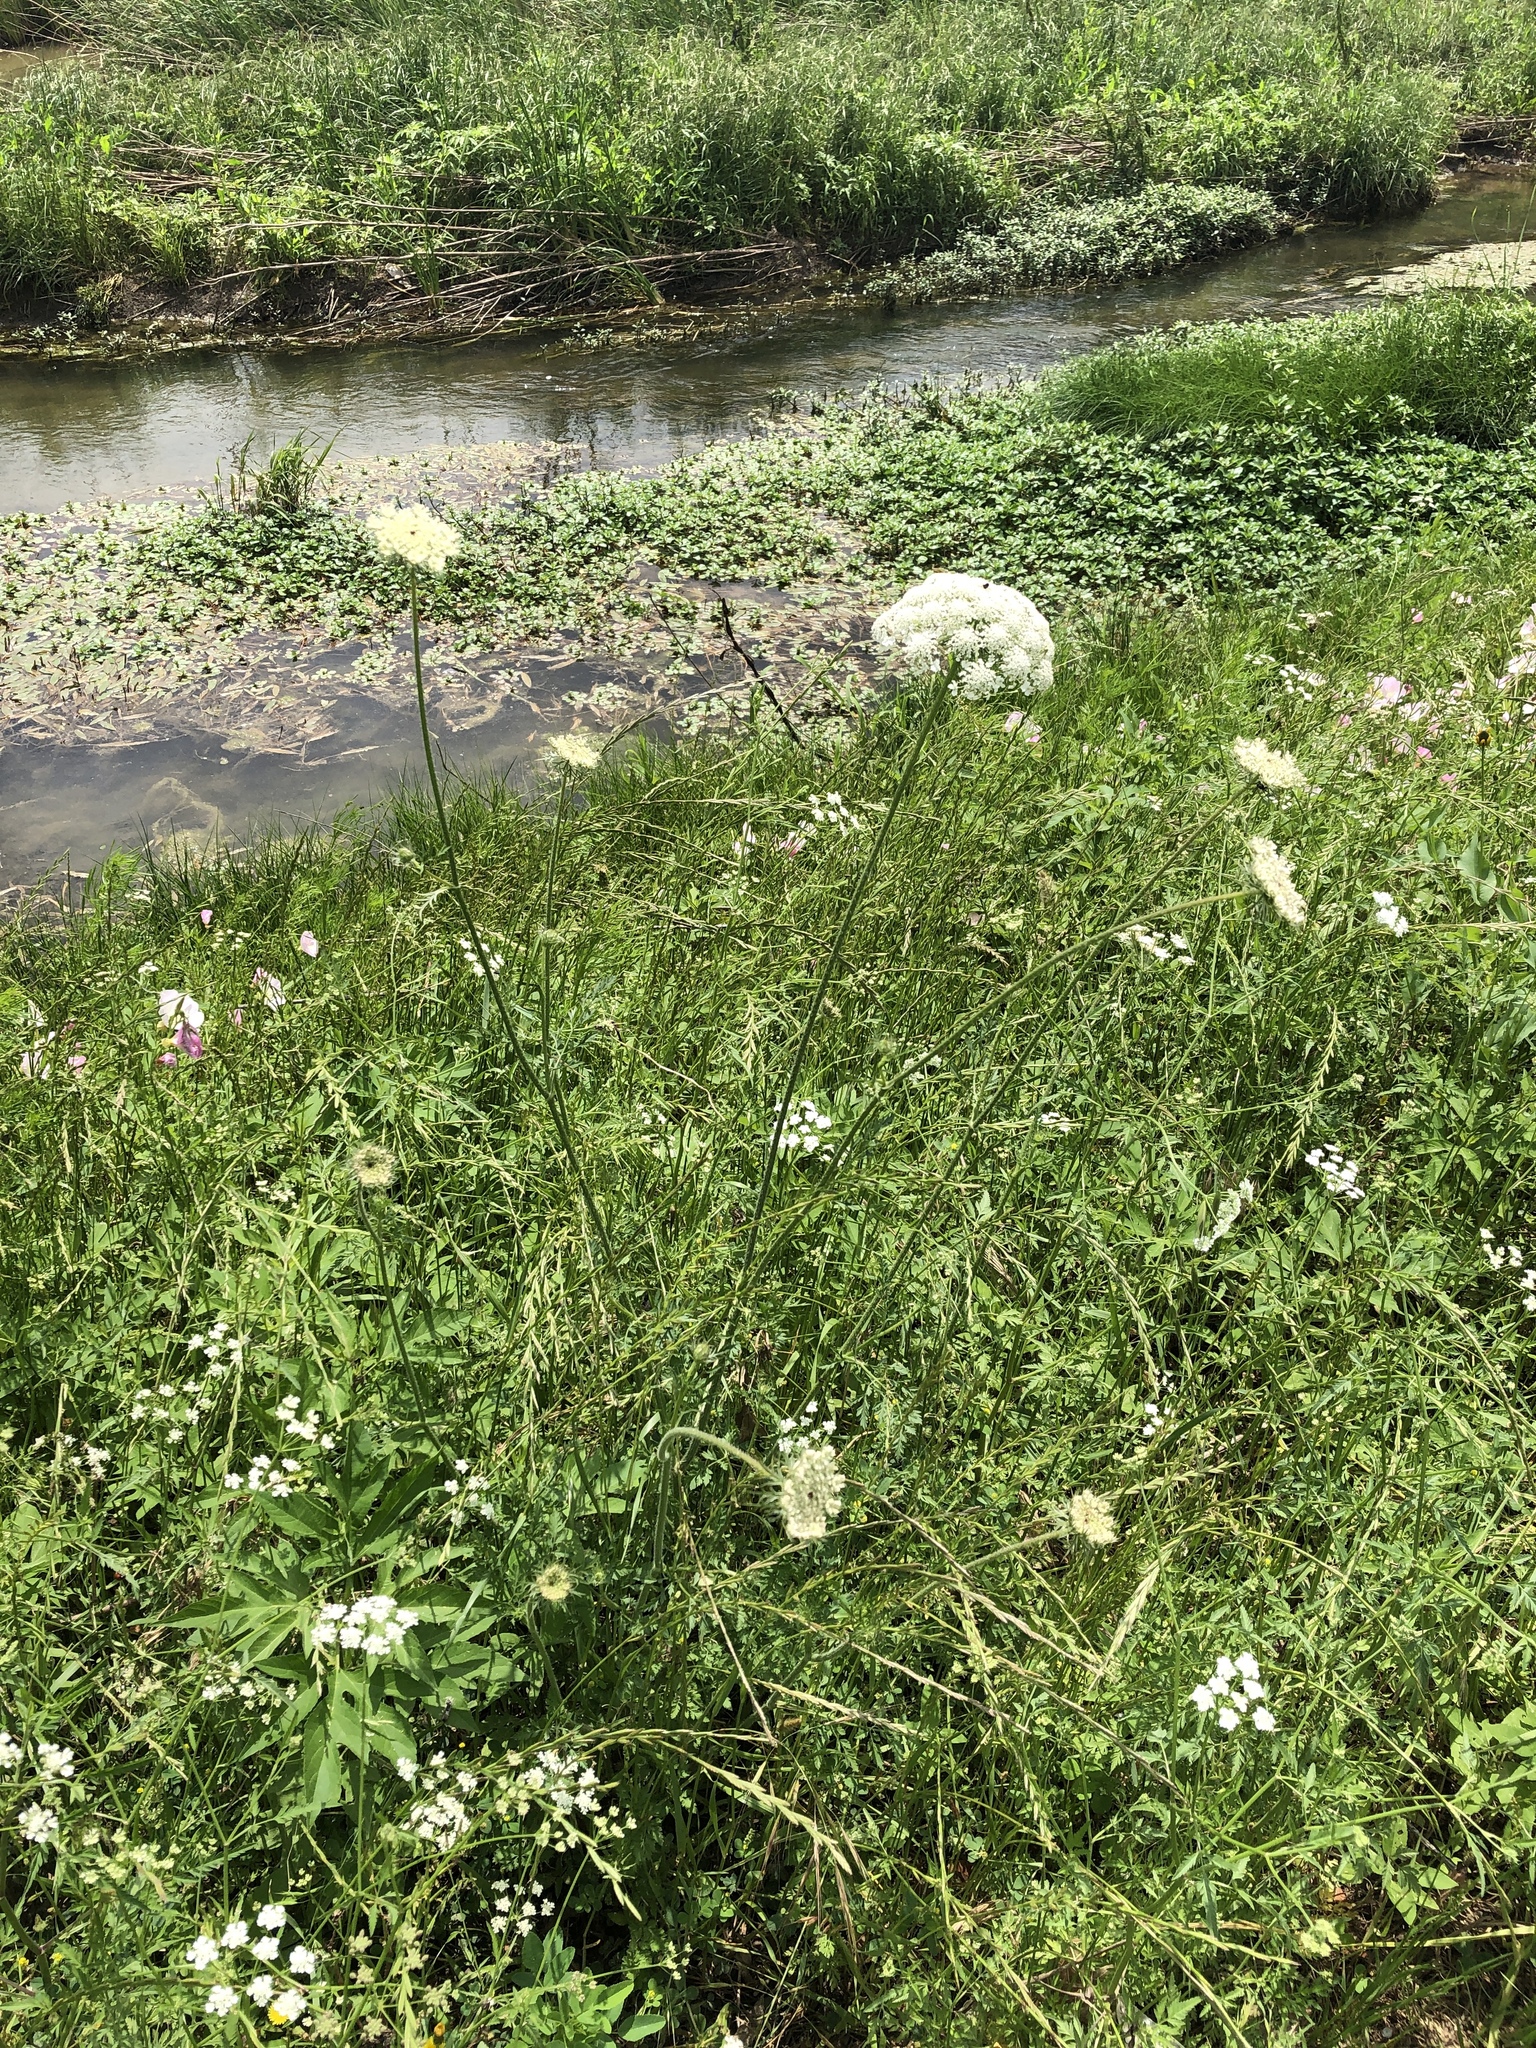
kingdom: Plantae
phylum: Tracheophyta
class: Magnoliopsida
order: Apiales
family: Apiaceae
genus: Daucus
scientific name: Daucus carota
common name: Wild carrot
